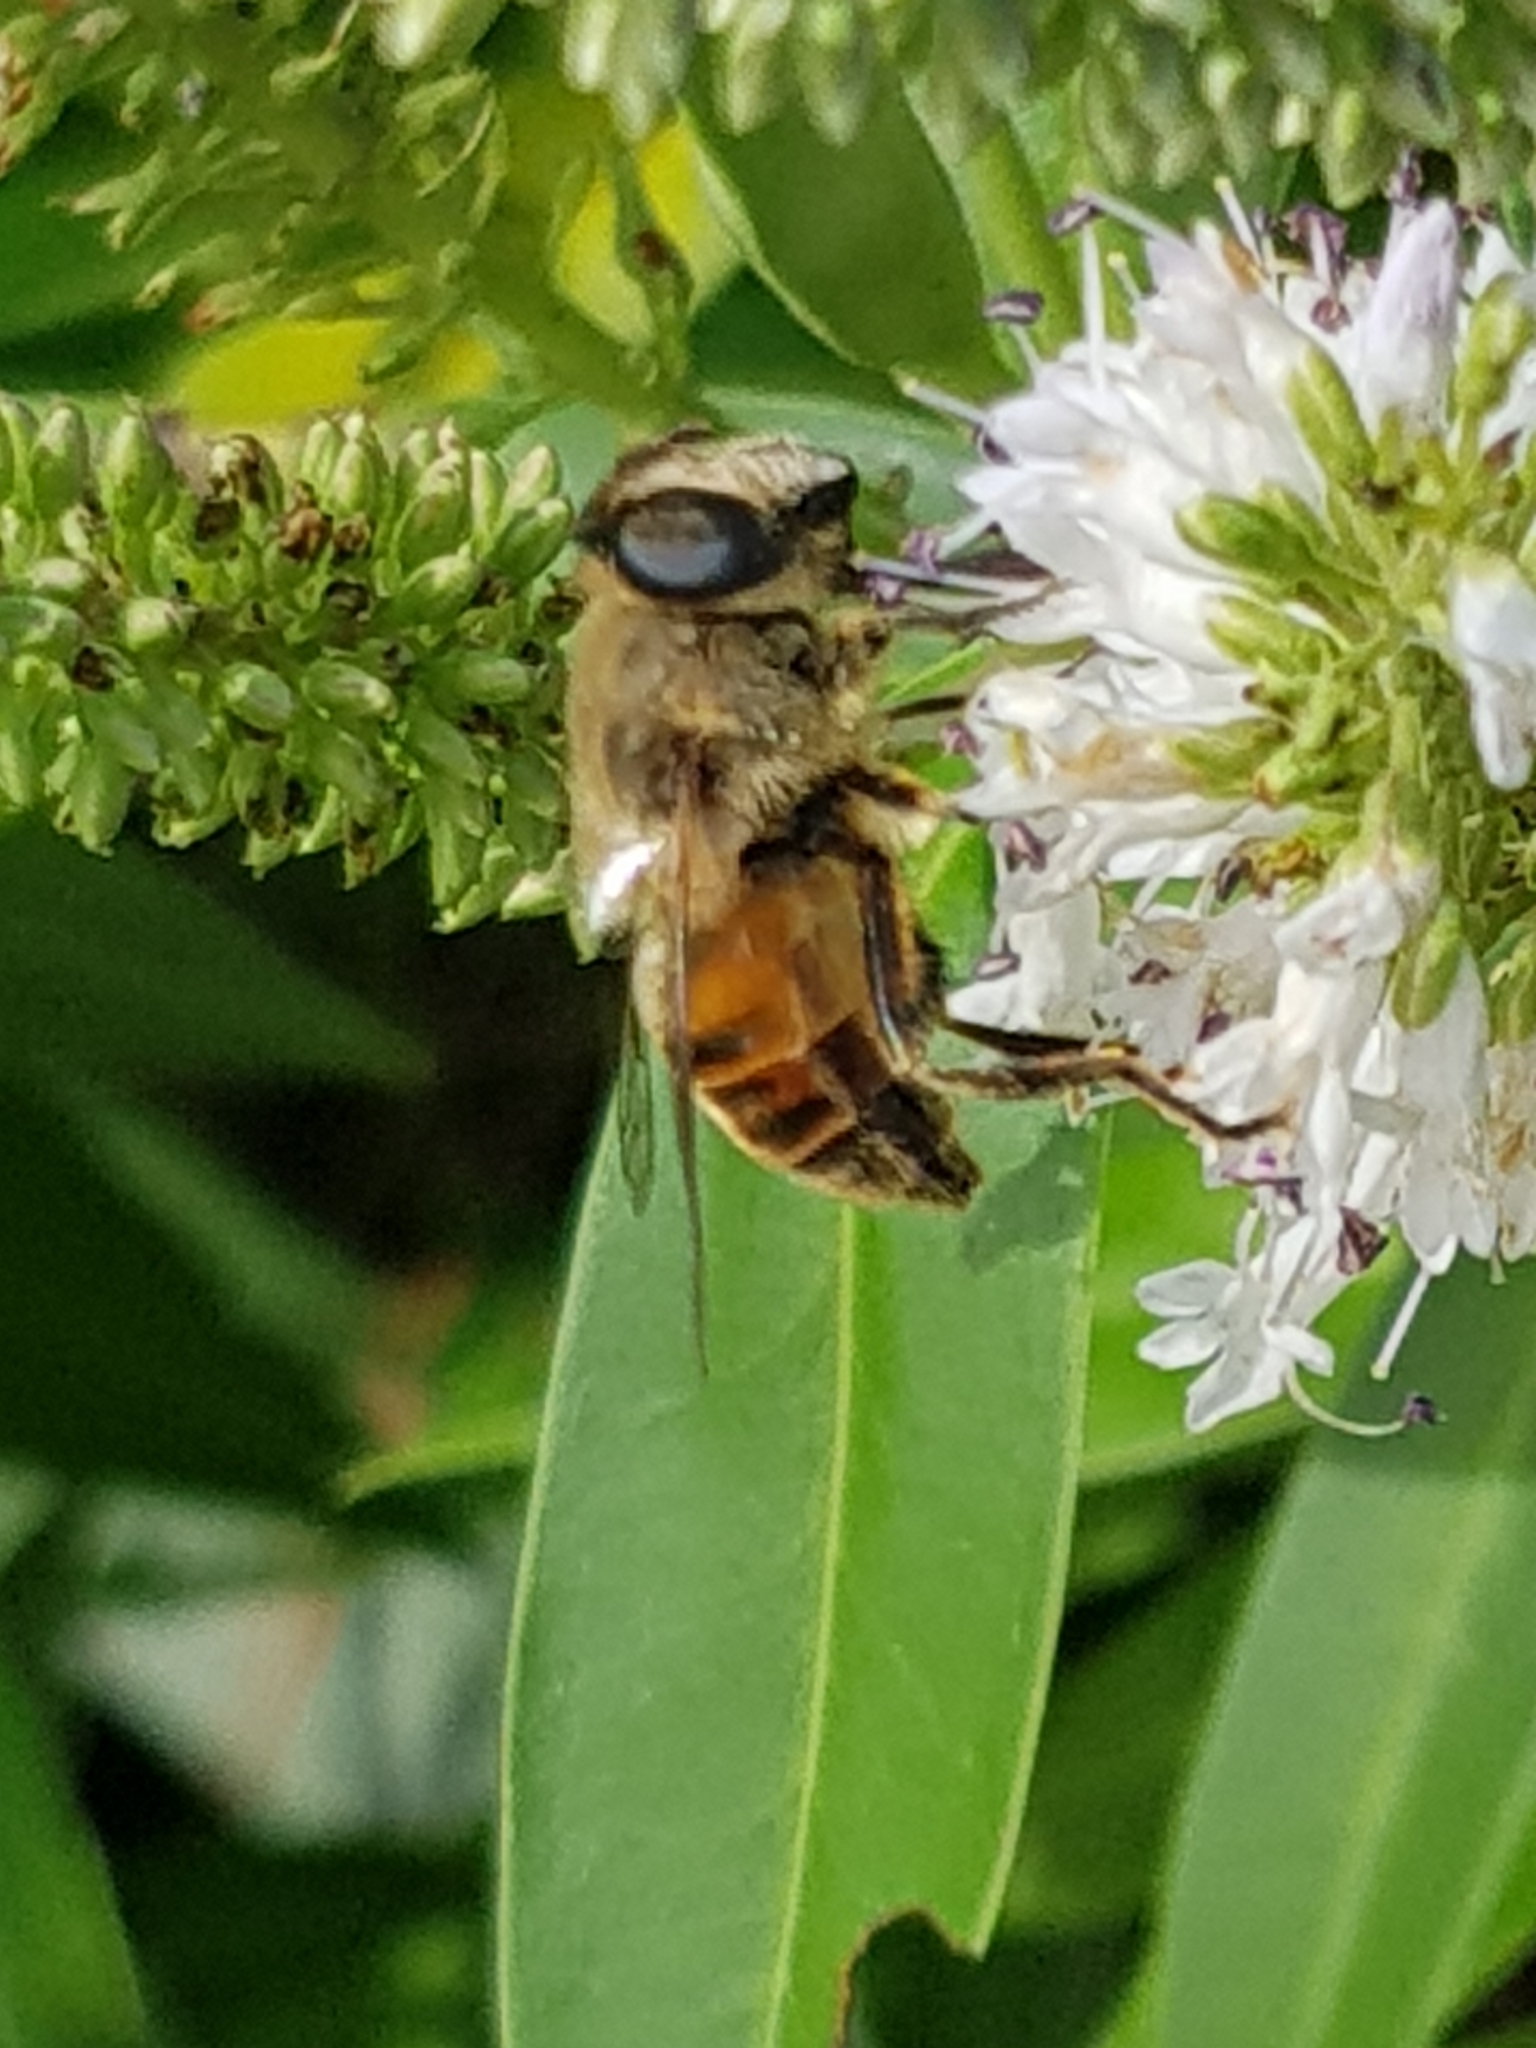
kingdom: Animalia
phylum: Arthropoda
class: Insecta
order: Diptera
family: Syrphidae
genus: Eristalis
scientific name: Eristalis tenax
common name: Drone fly
